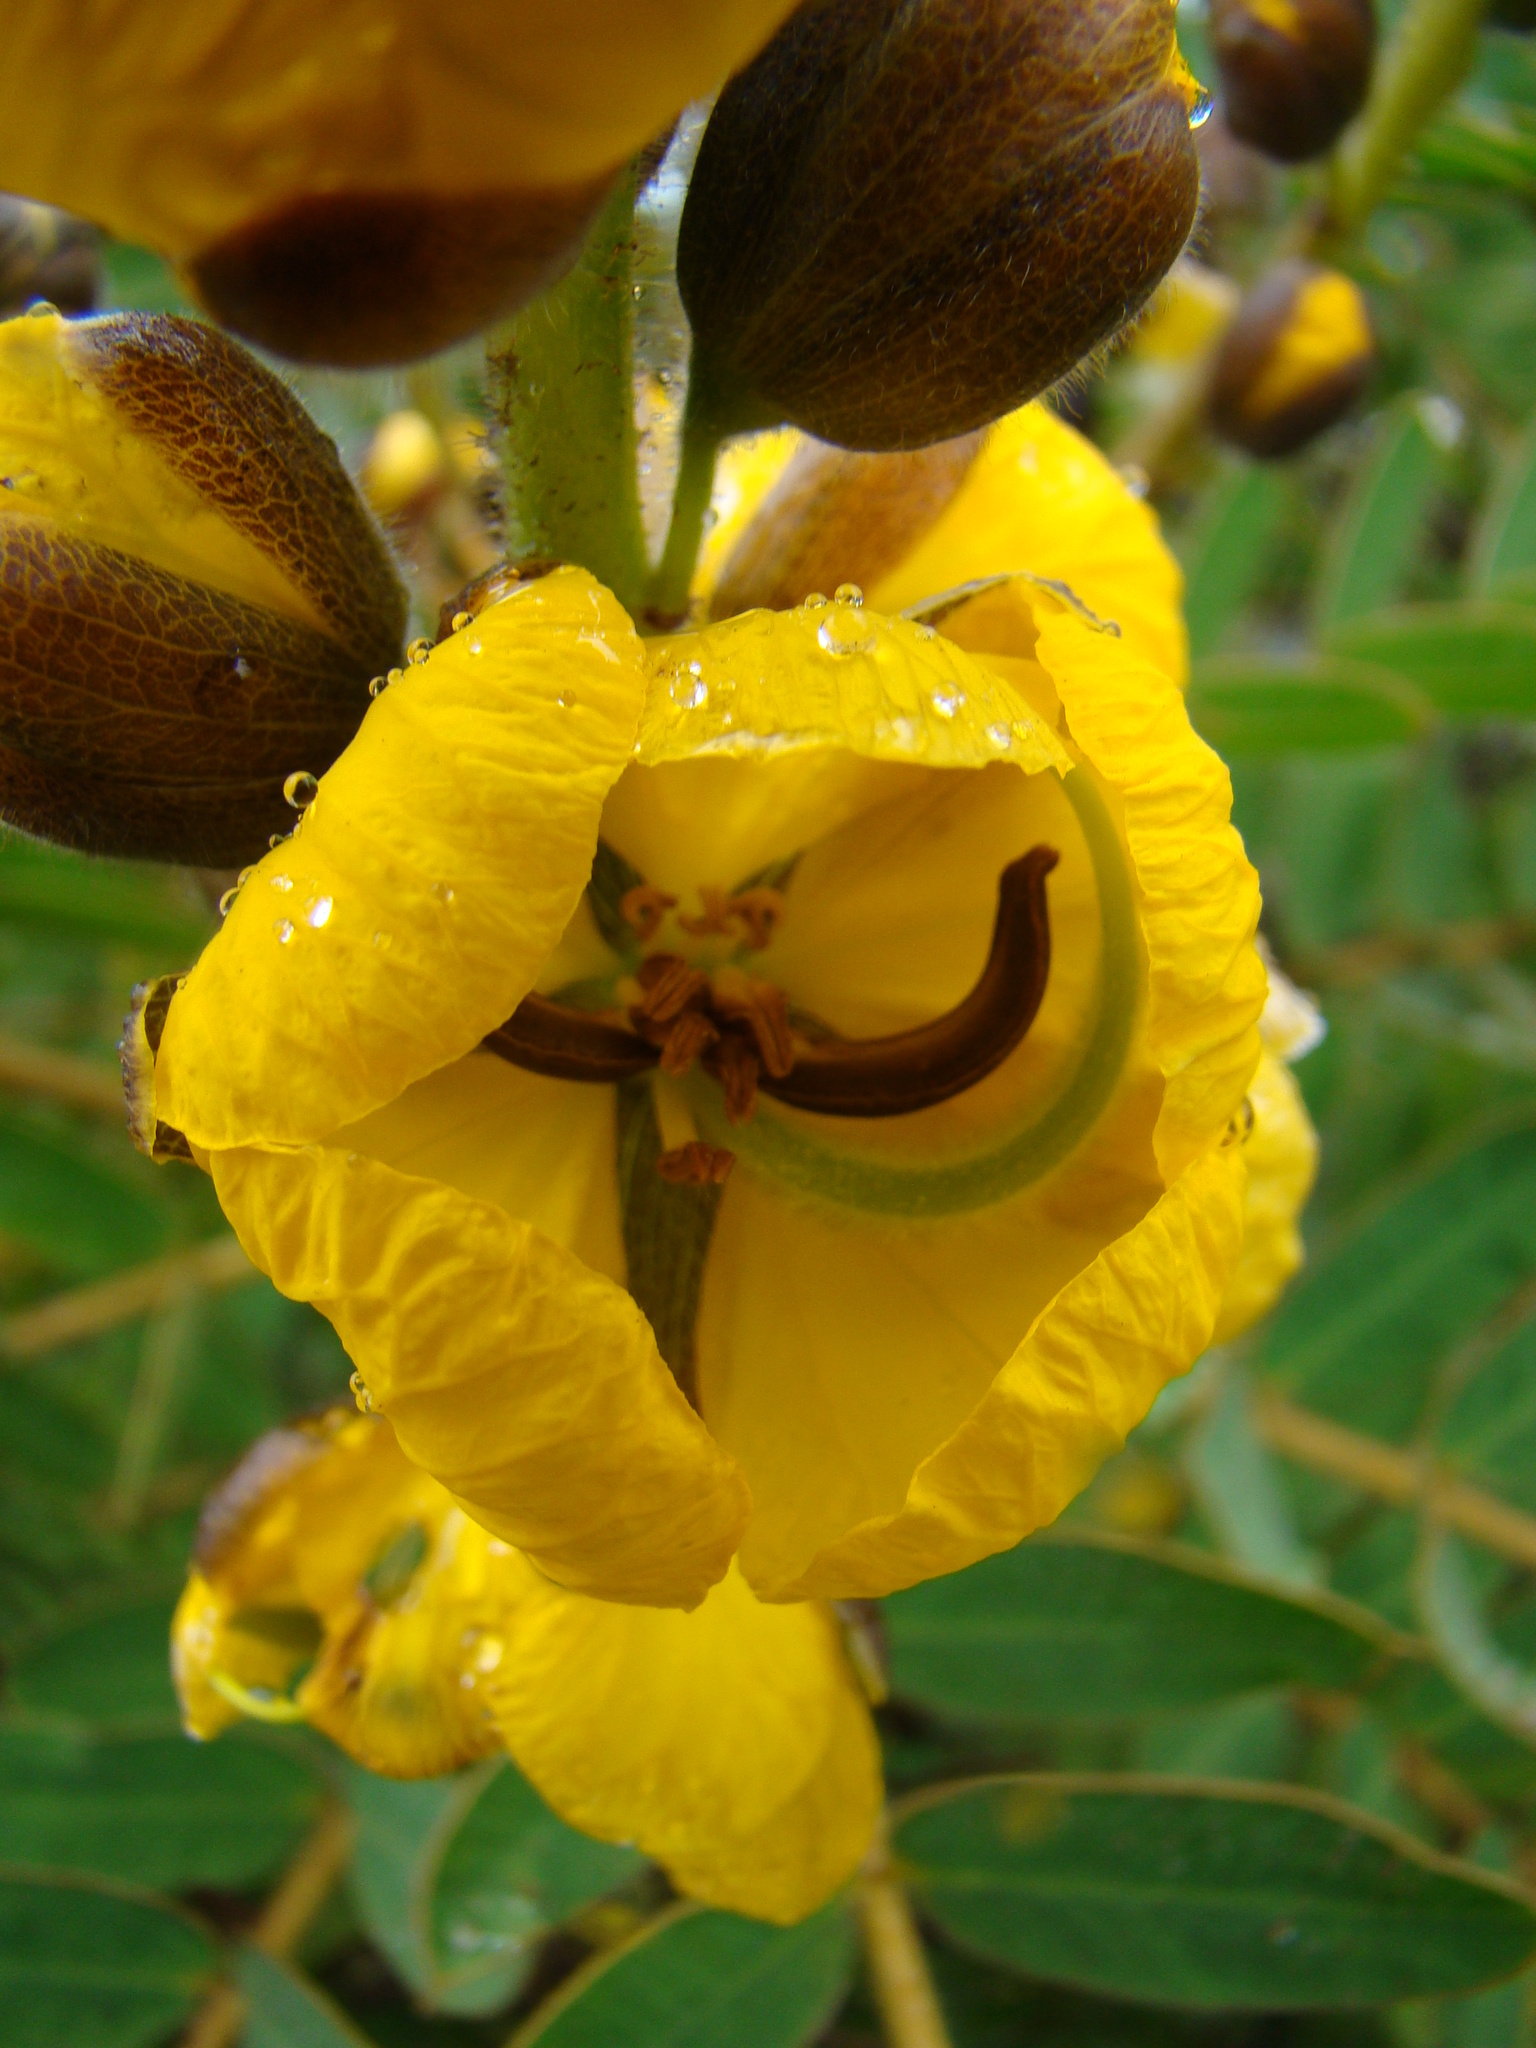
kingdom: Plantae
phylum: Tracheophyta
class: Magnoliopsida
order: Fabales
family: Fabaceae
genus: Senna
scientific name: Senna didymobotrya
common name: African senna
